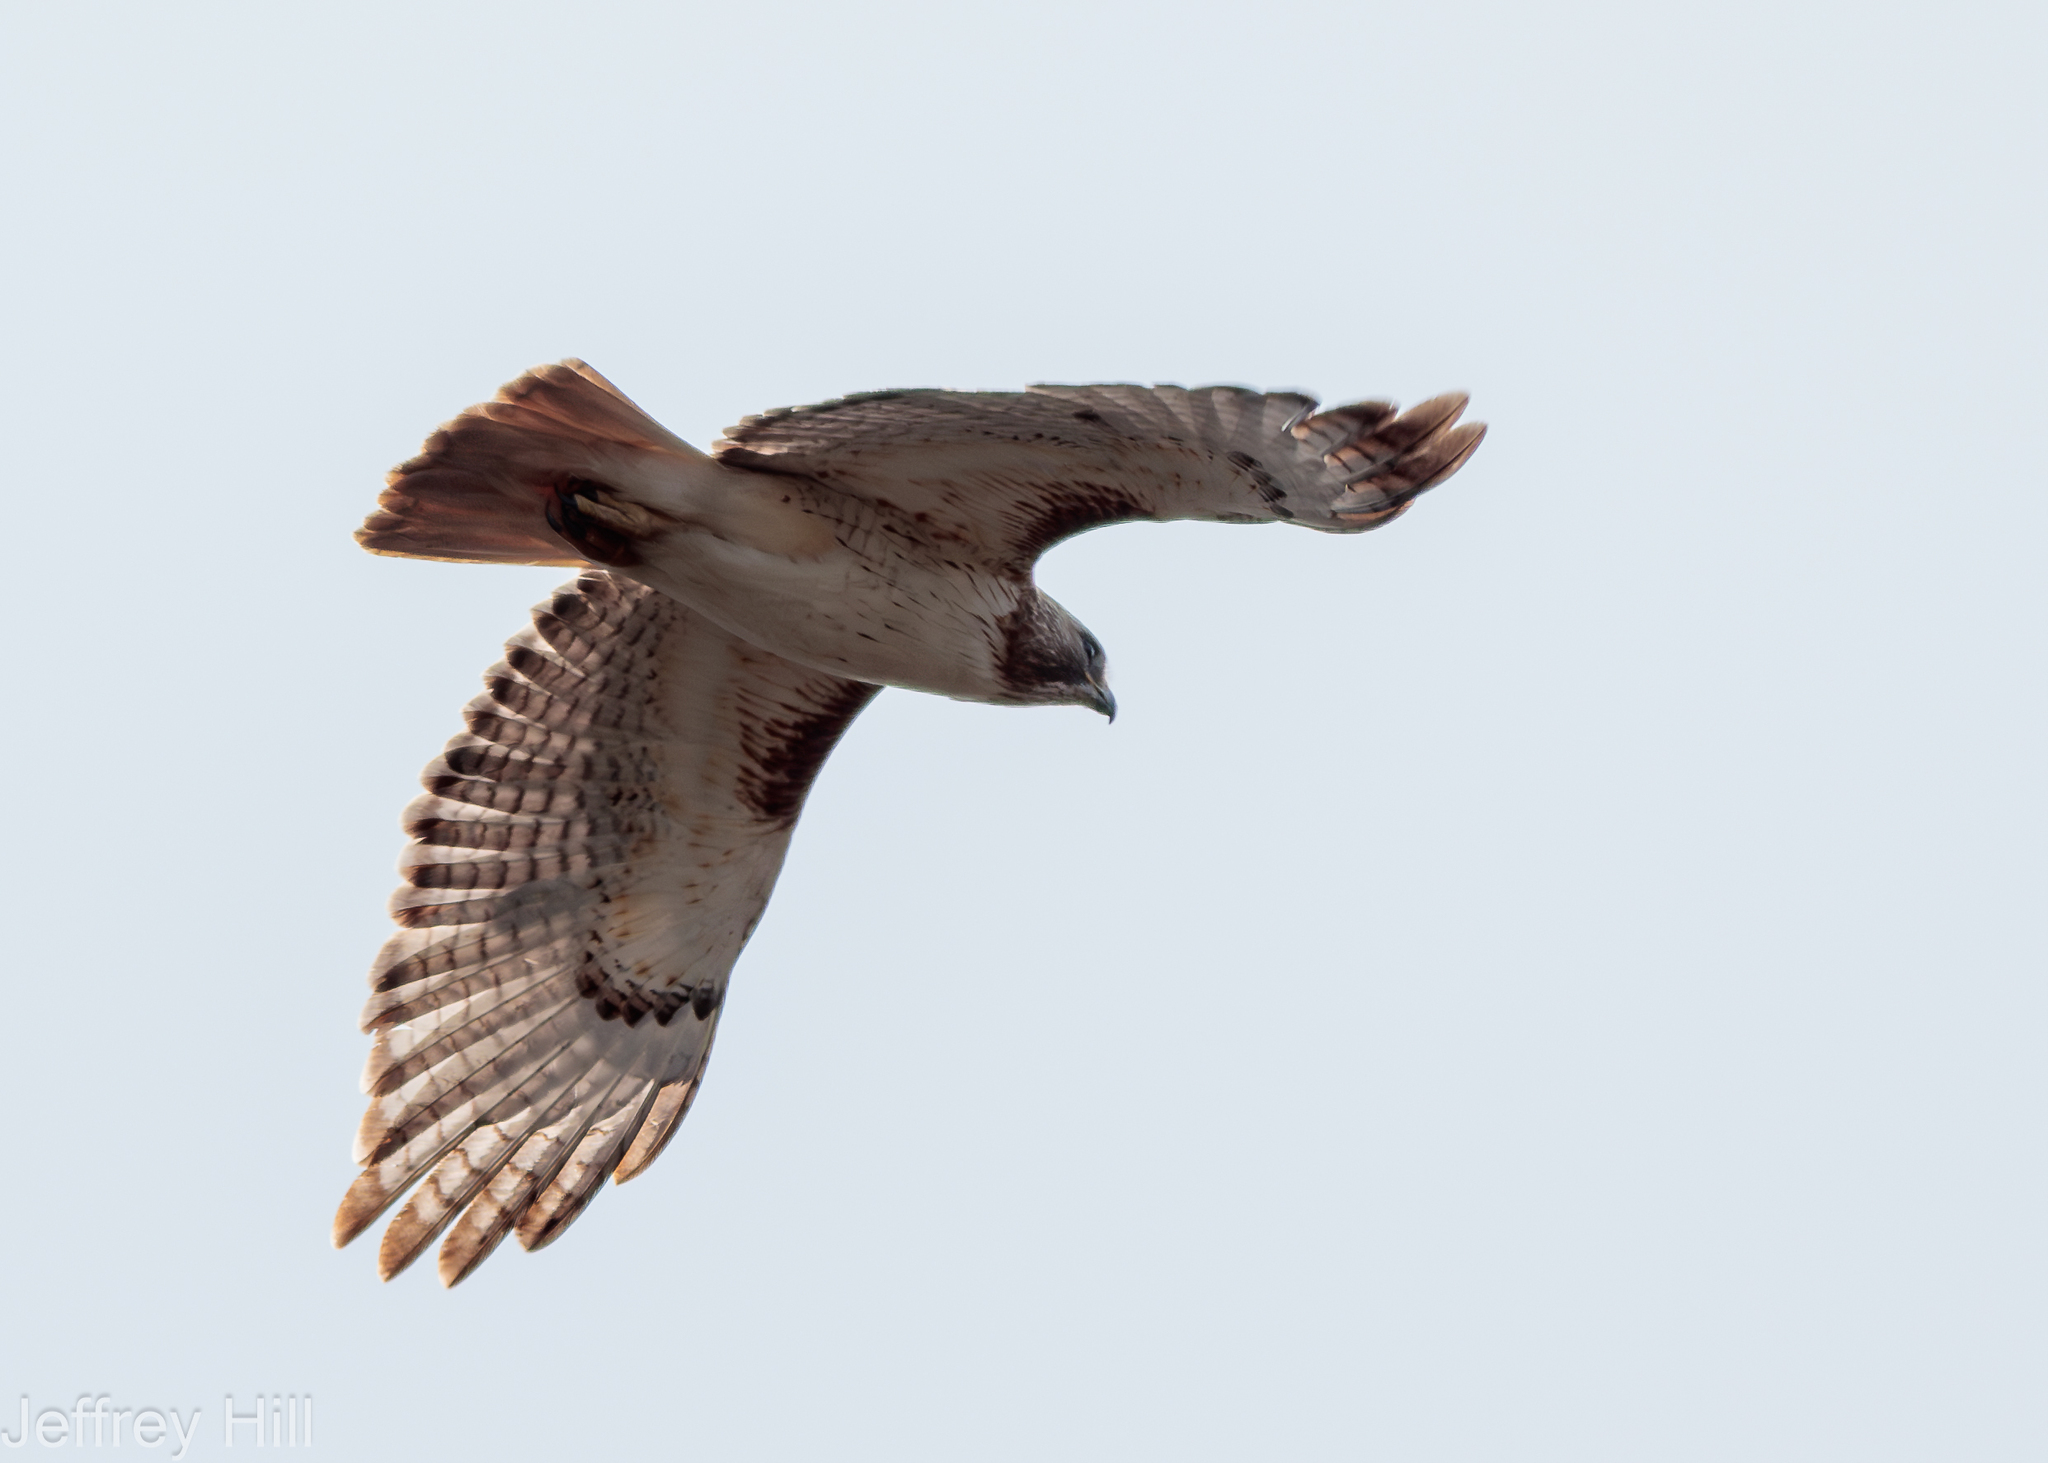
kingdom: Animalia
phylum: Chordata
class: Aves
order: Accipitriformes
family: Accipitridae
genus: Buteo
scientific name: Buteo jamaicensis
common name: Red-tailed hawk
